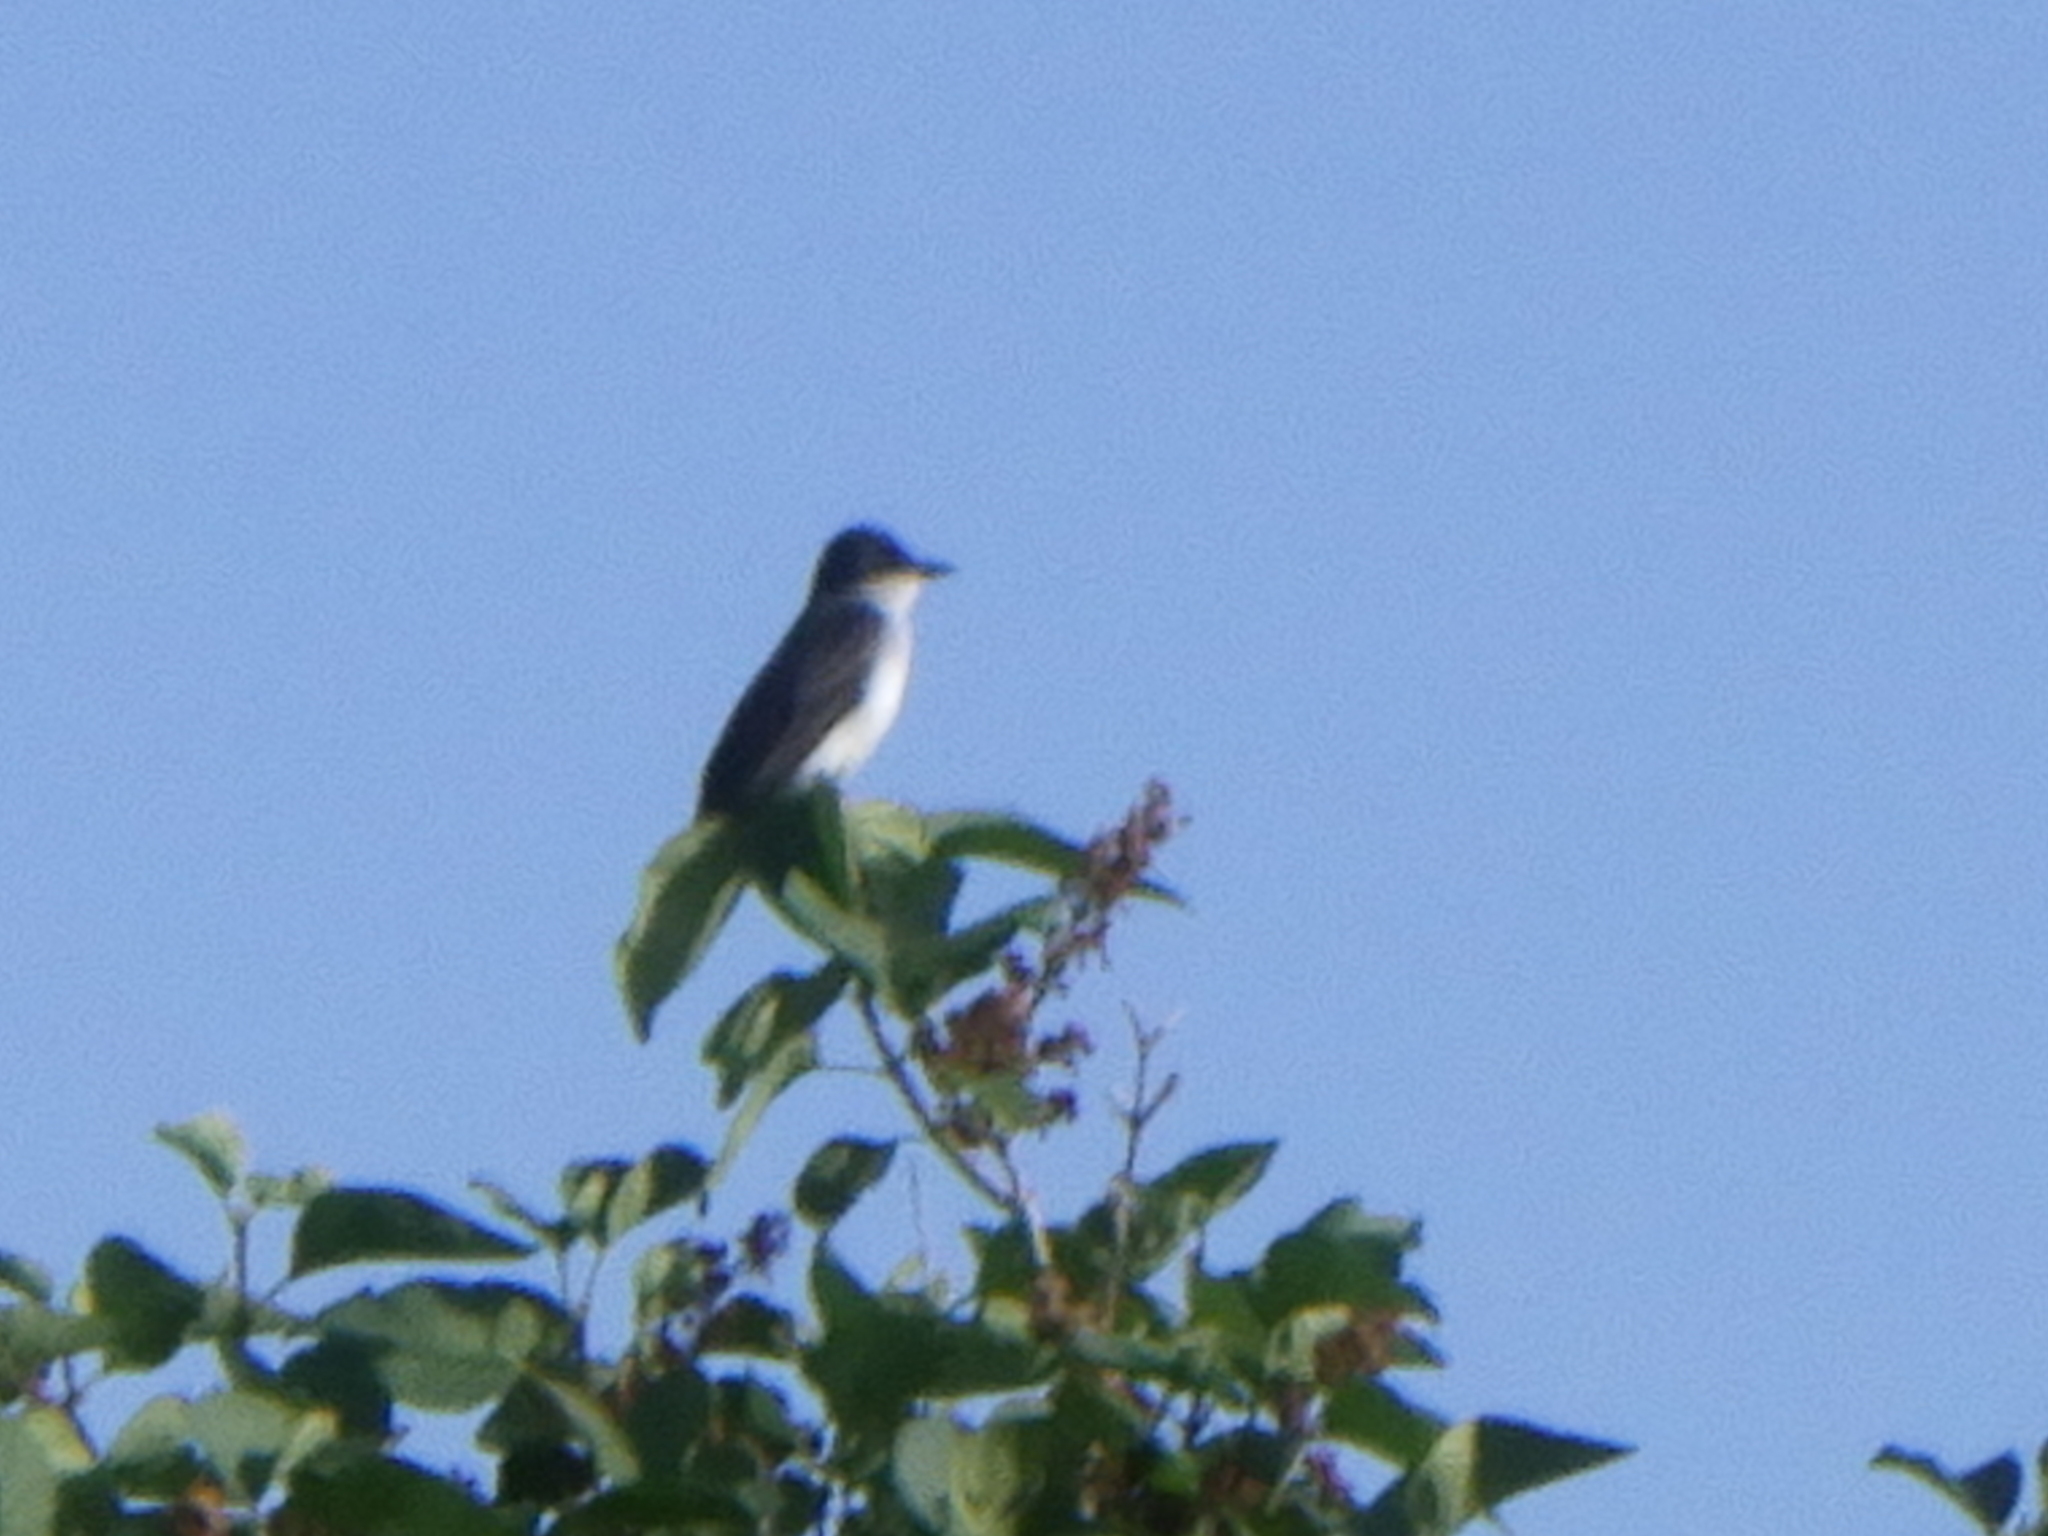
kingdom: Animalia
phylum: Chordata
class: Aves
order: Passeriformes
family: Tyrannidae
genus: Tyrannus
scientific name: Tyrannus tyrannus
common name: Eastern kingbird
